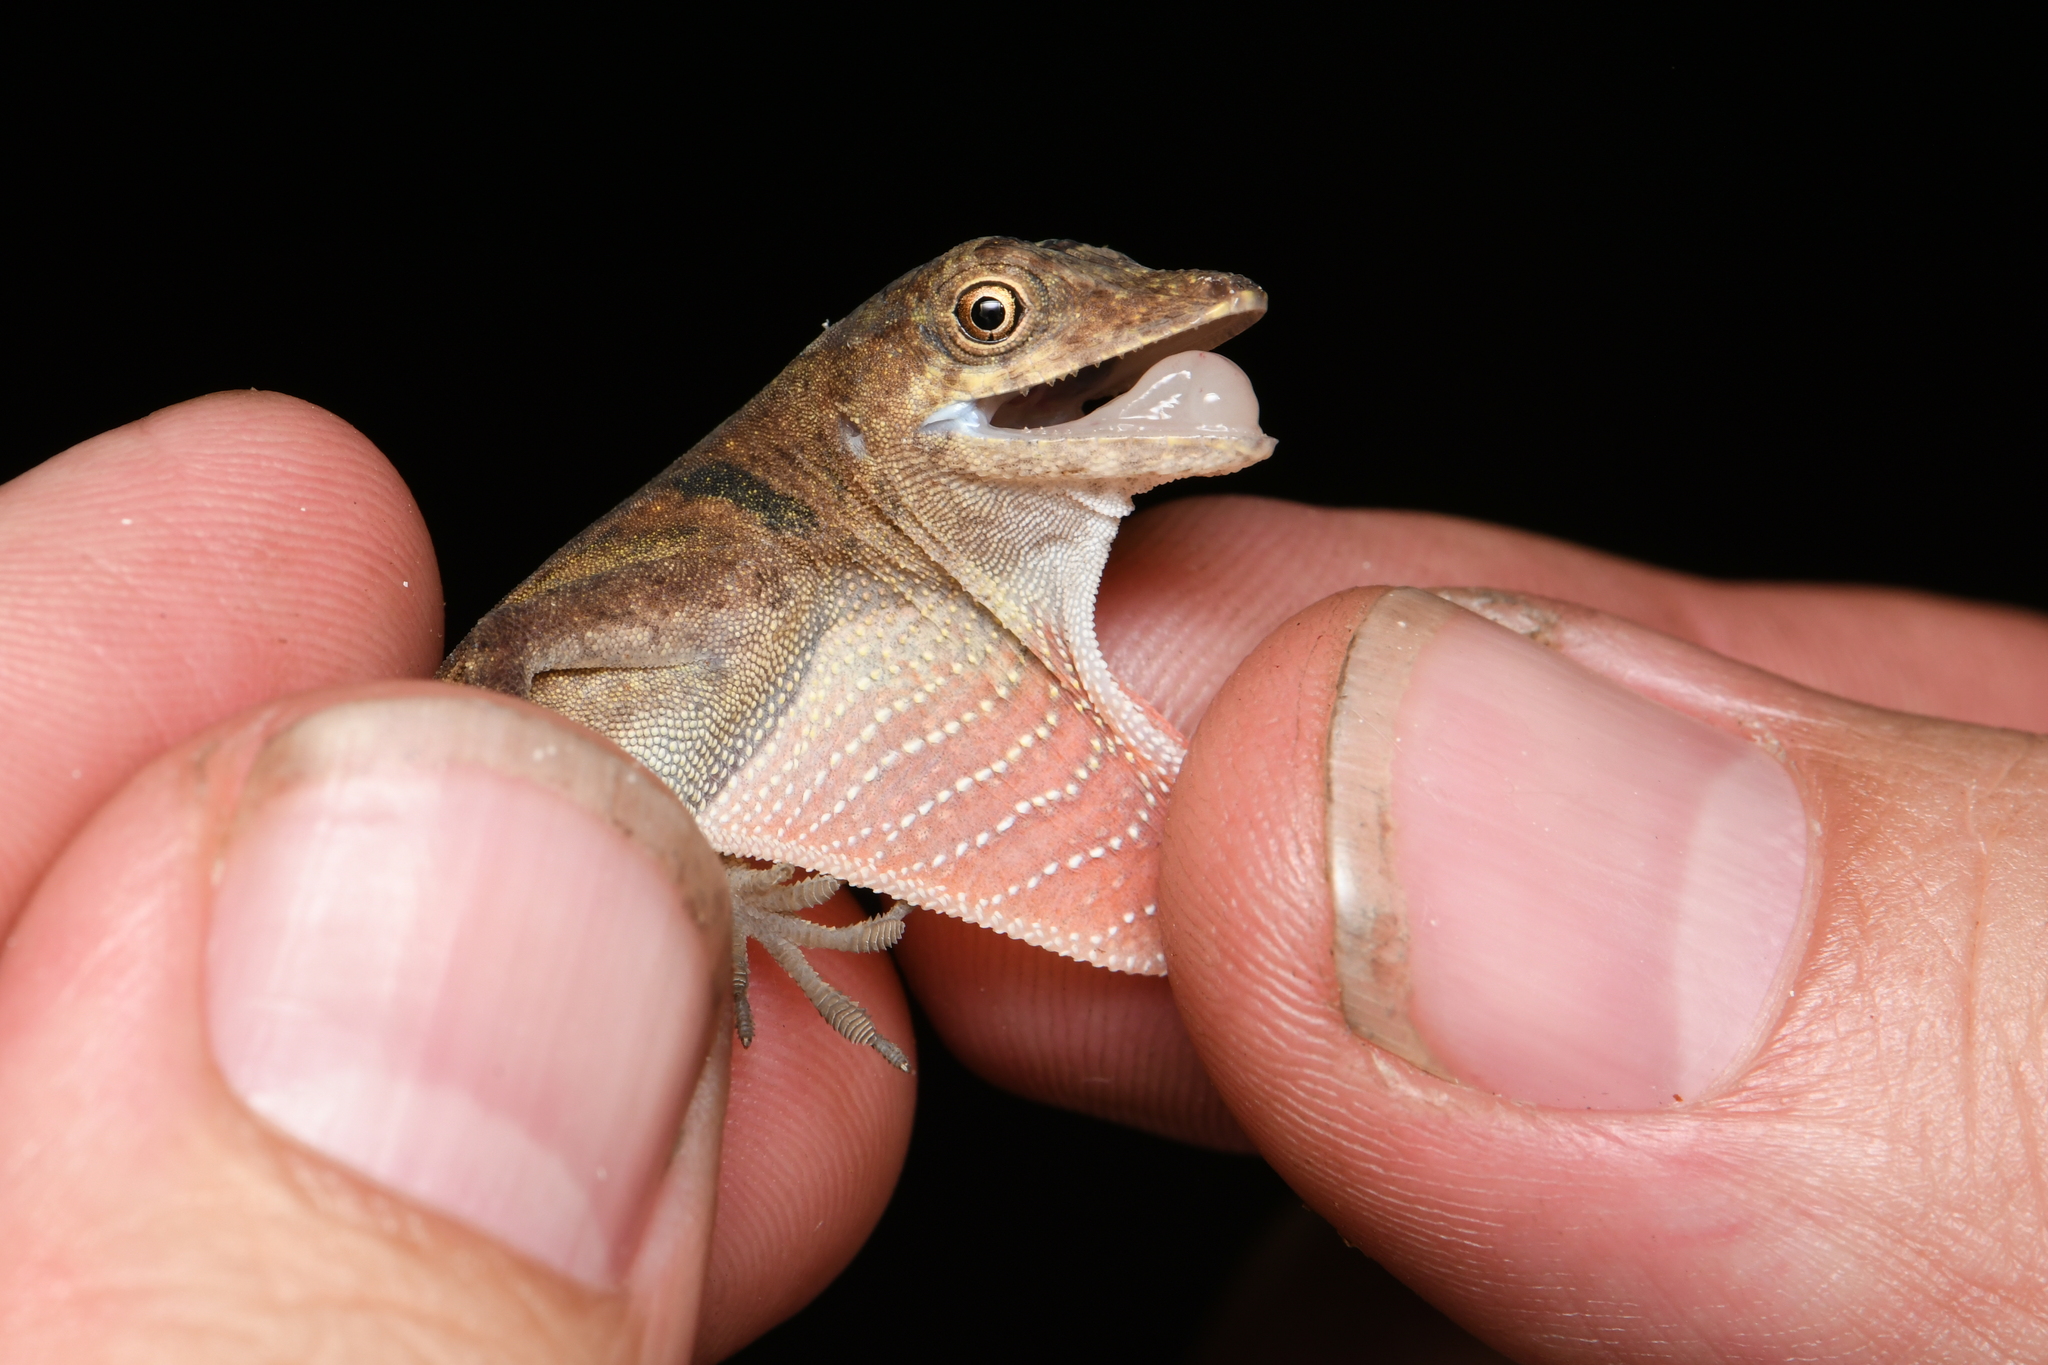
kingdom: Animalia
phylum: Chordata
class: Squamata
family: Dactyloidae
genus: Anolis
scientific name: Anolis fuscoauratus
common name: Brown-eared anole
